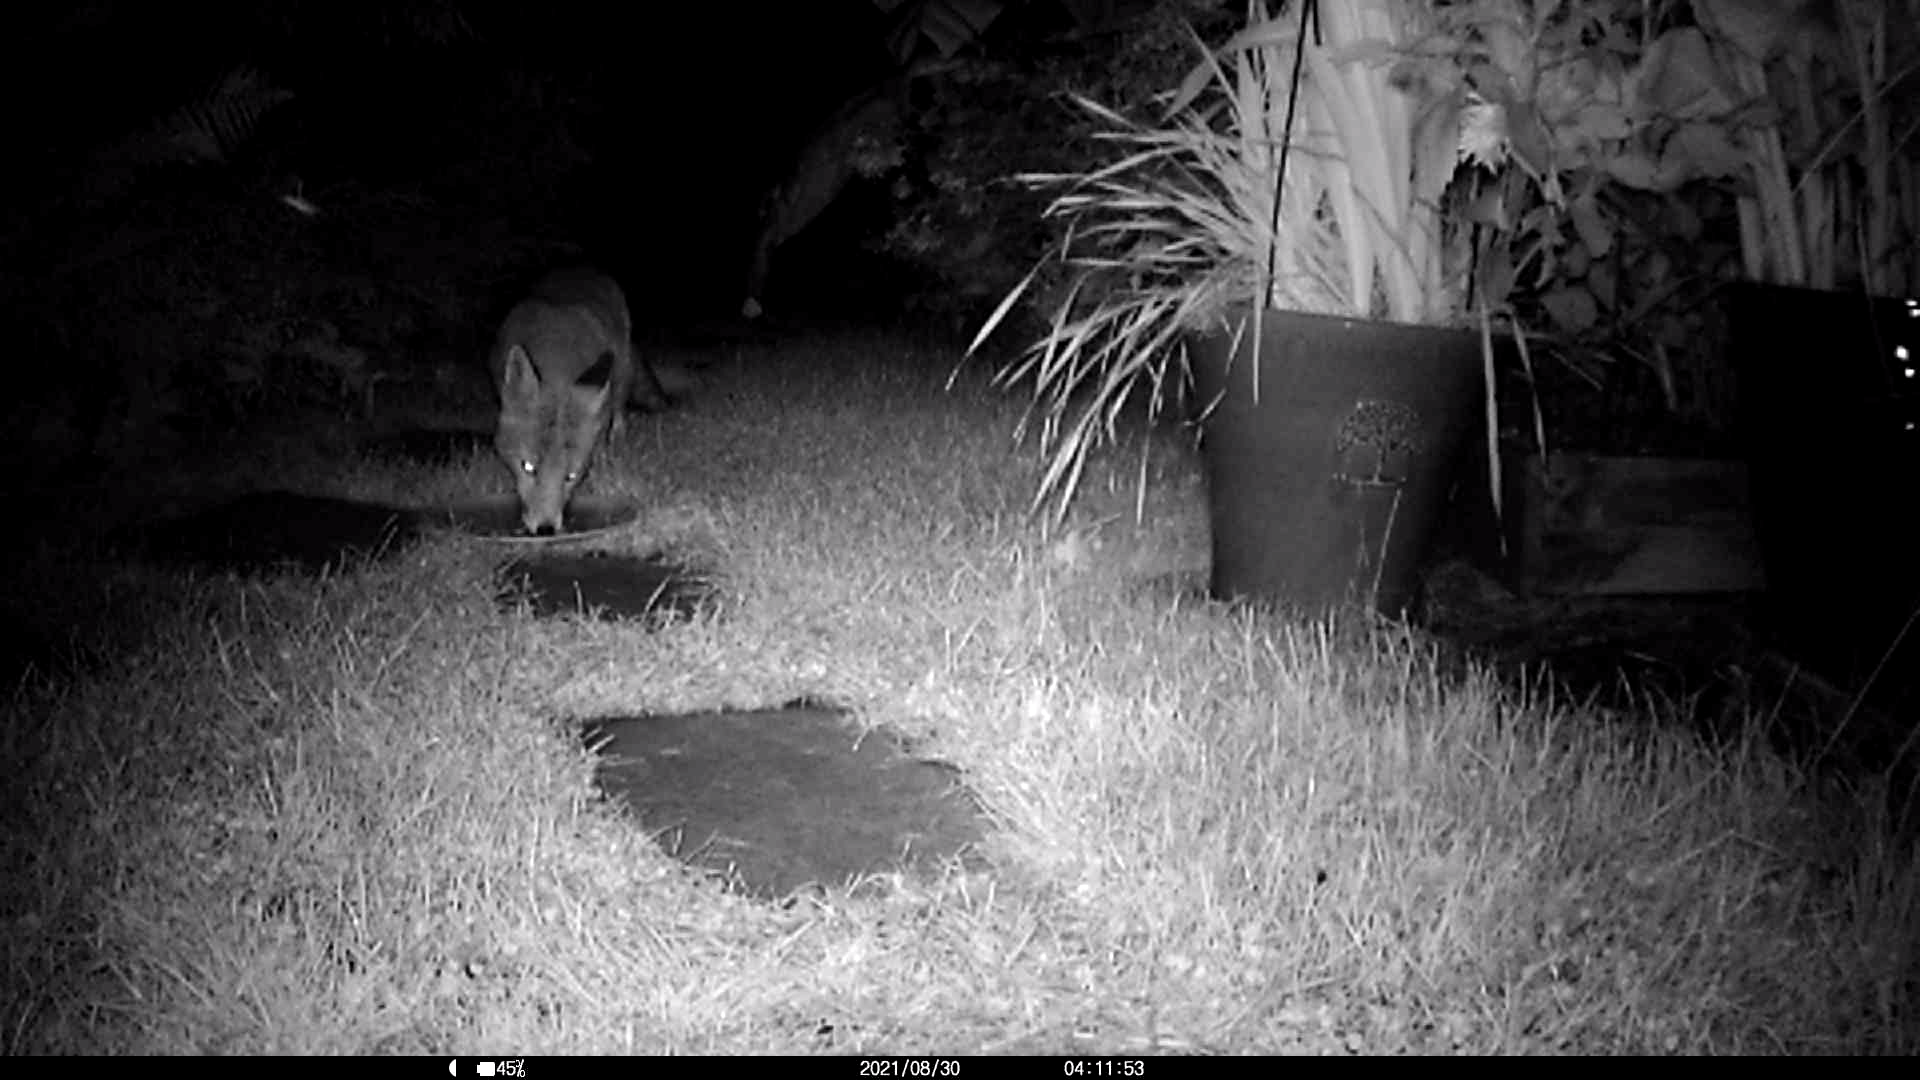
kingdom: Animalia
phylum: Chordata
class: Mammalia
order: Carnivora
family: Canidae
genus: Vulpes
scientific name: Vulpes vulpes
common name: Red fox
